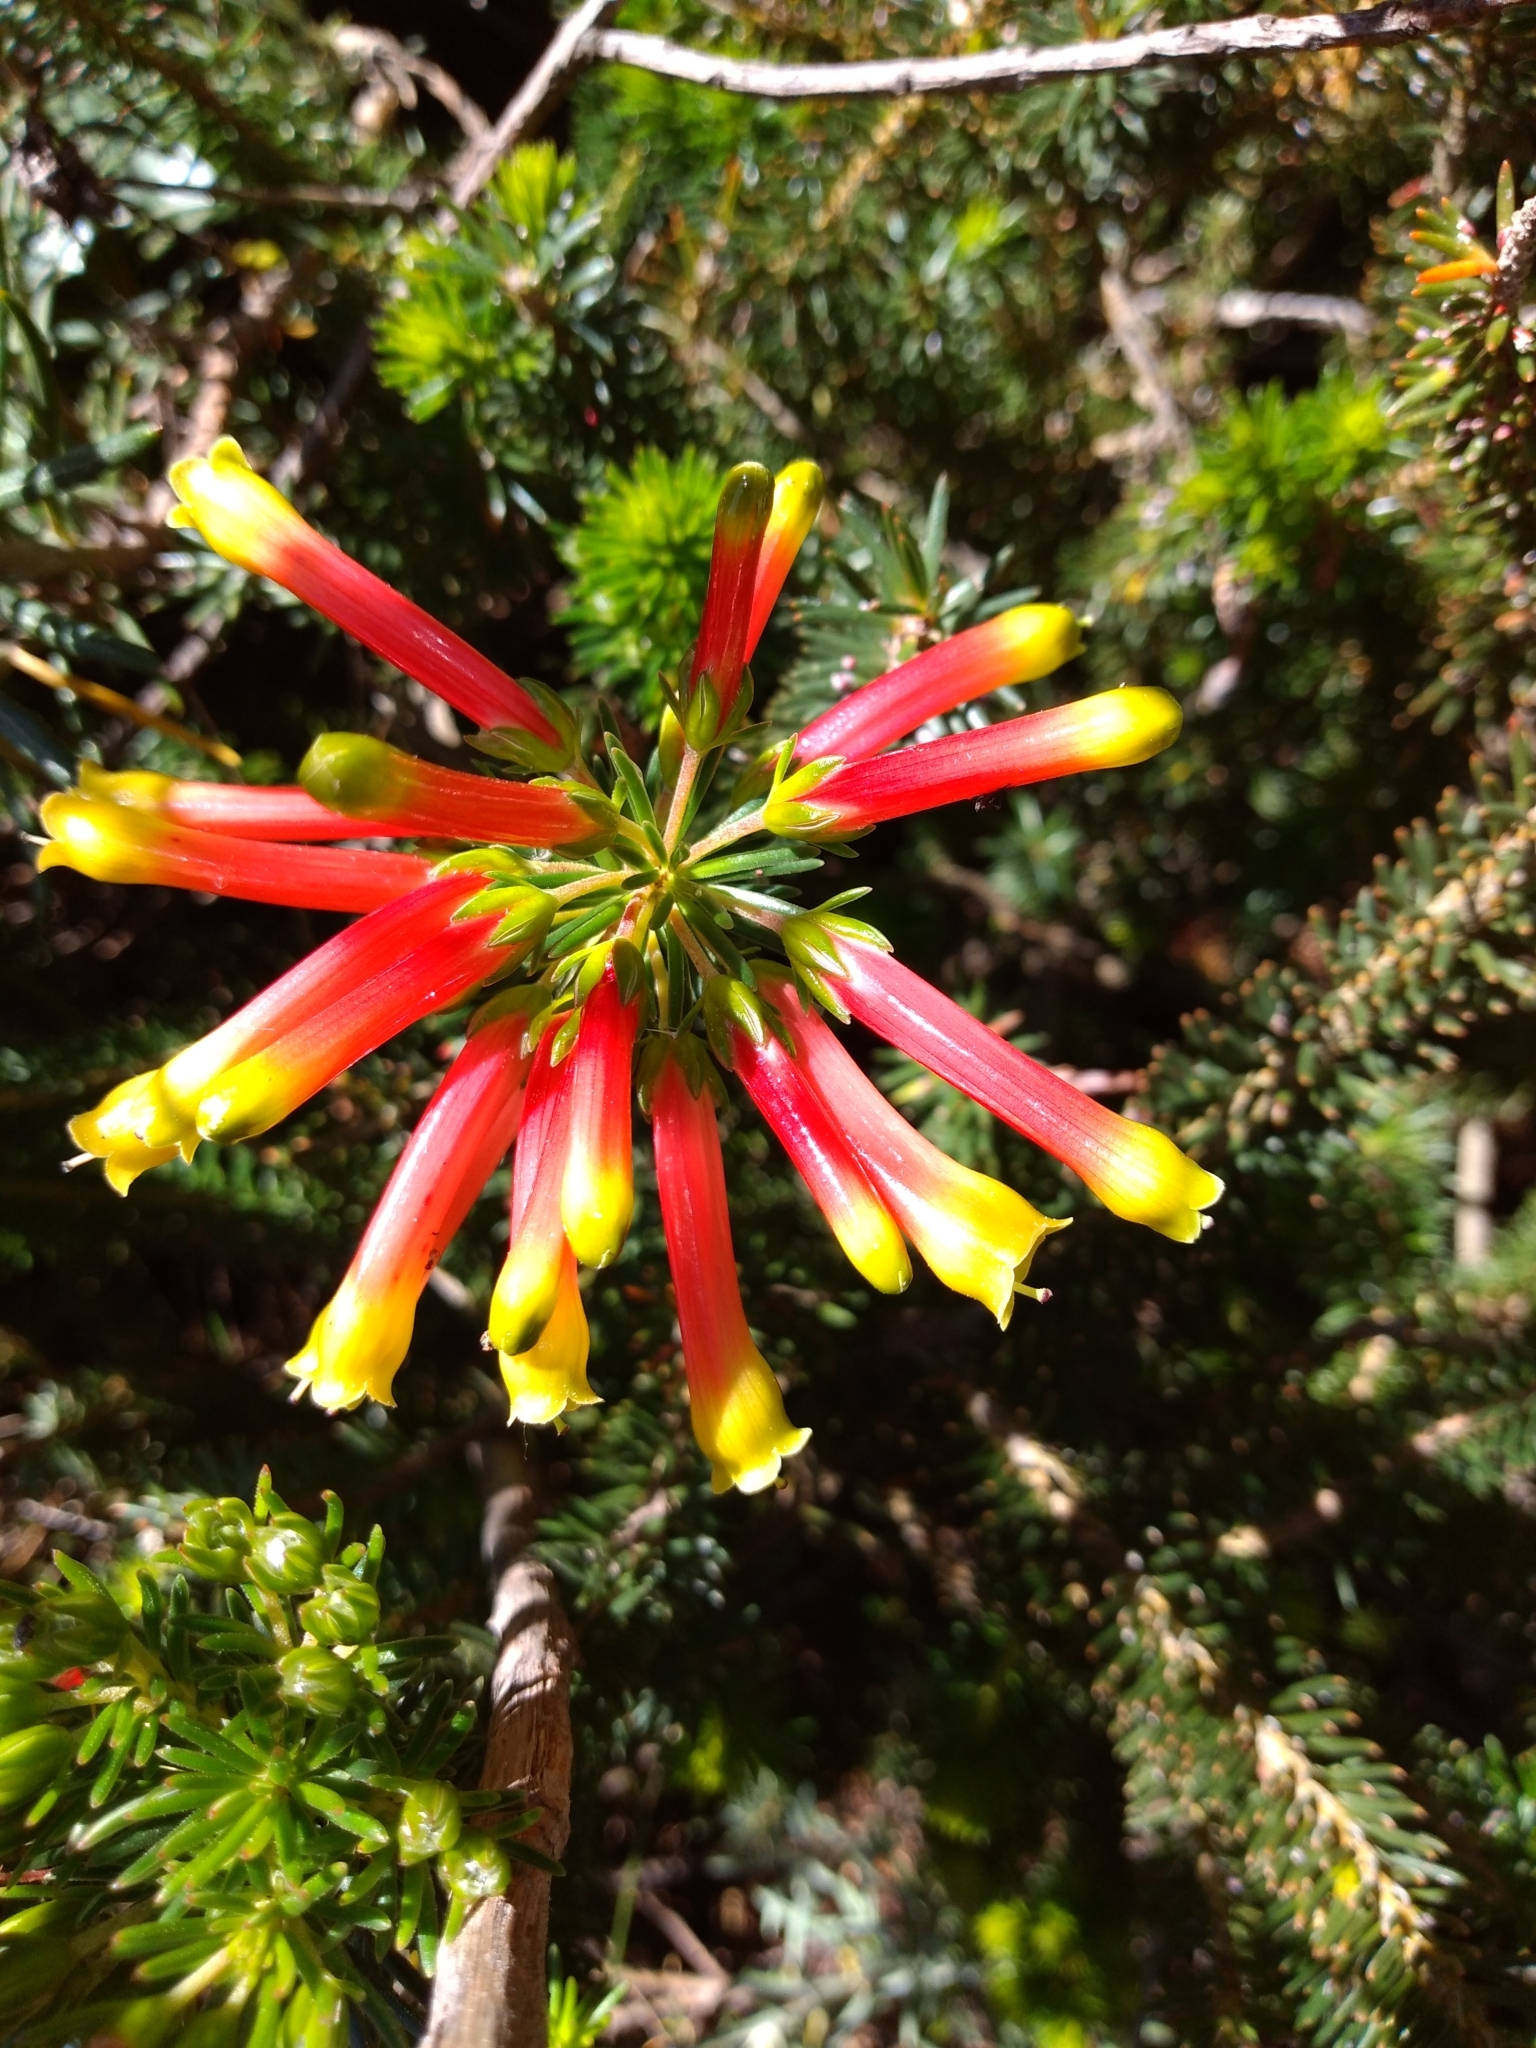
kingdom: Plantae
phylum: Tracheophyta
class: Magnoliopsida
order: Ericales
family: Ericaceae
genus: Erica
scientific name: Erica hibbertia
